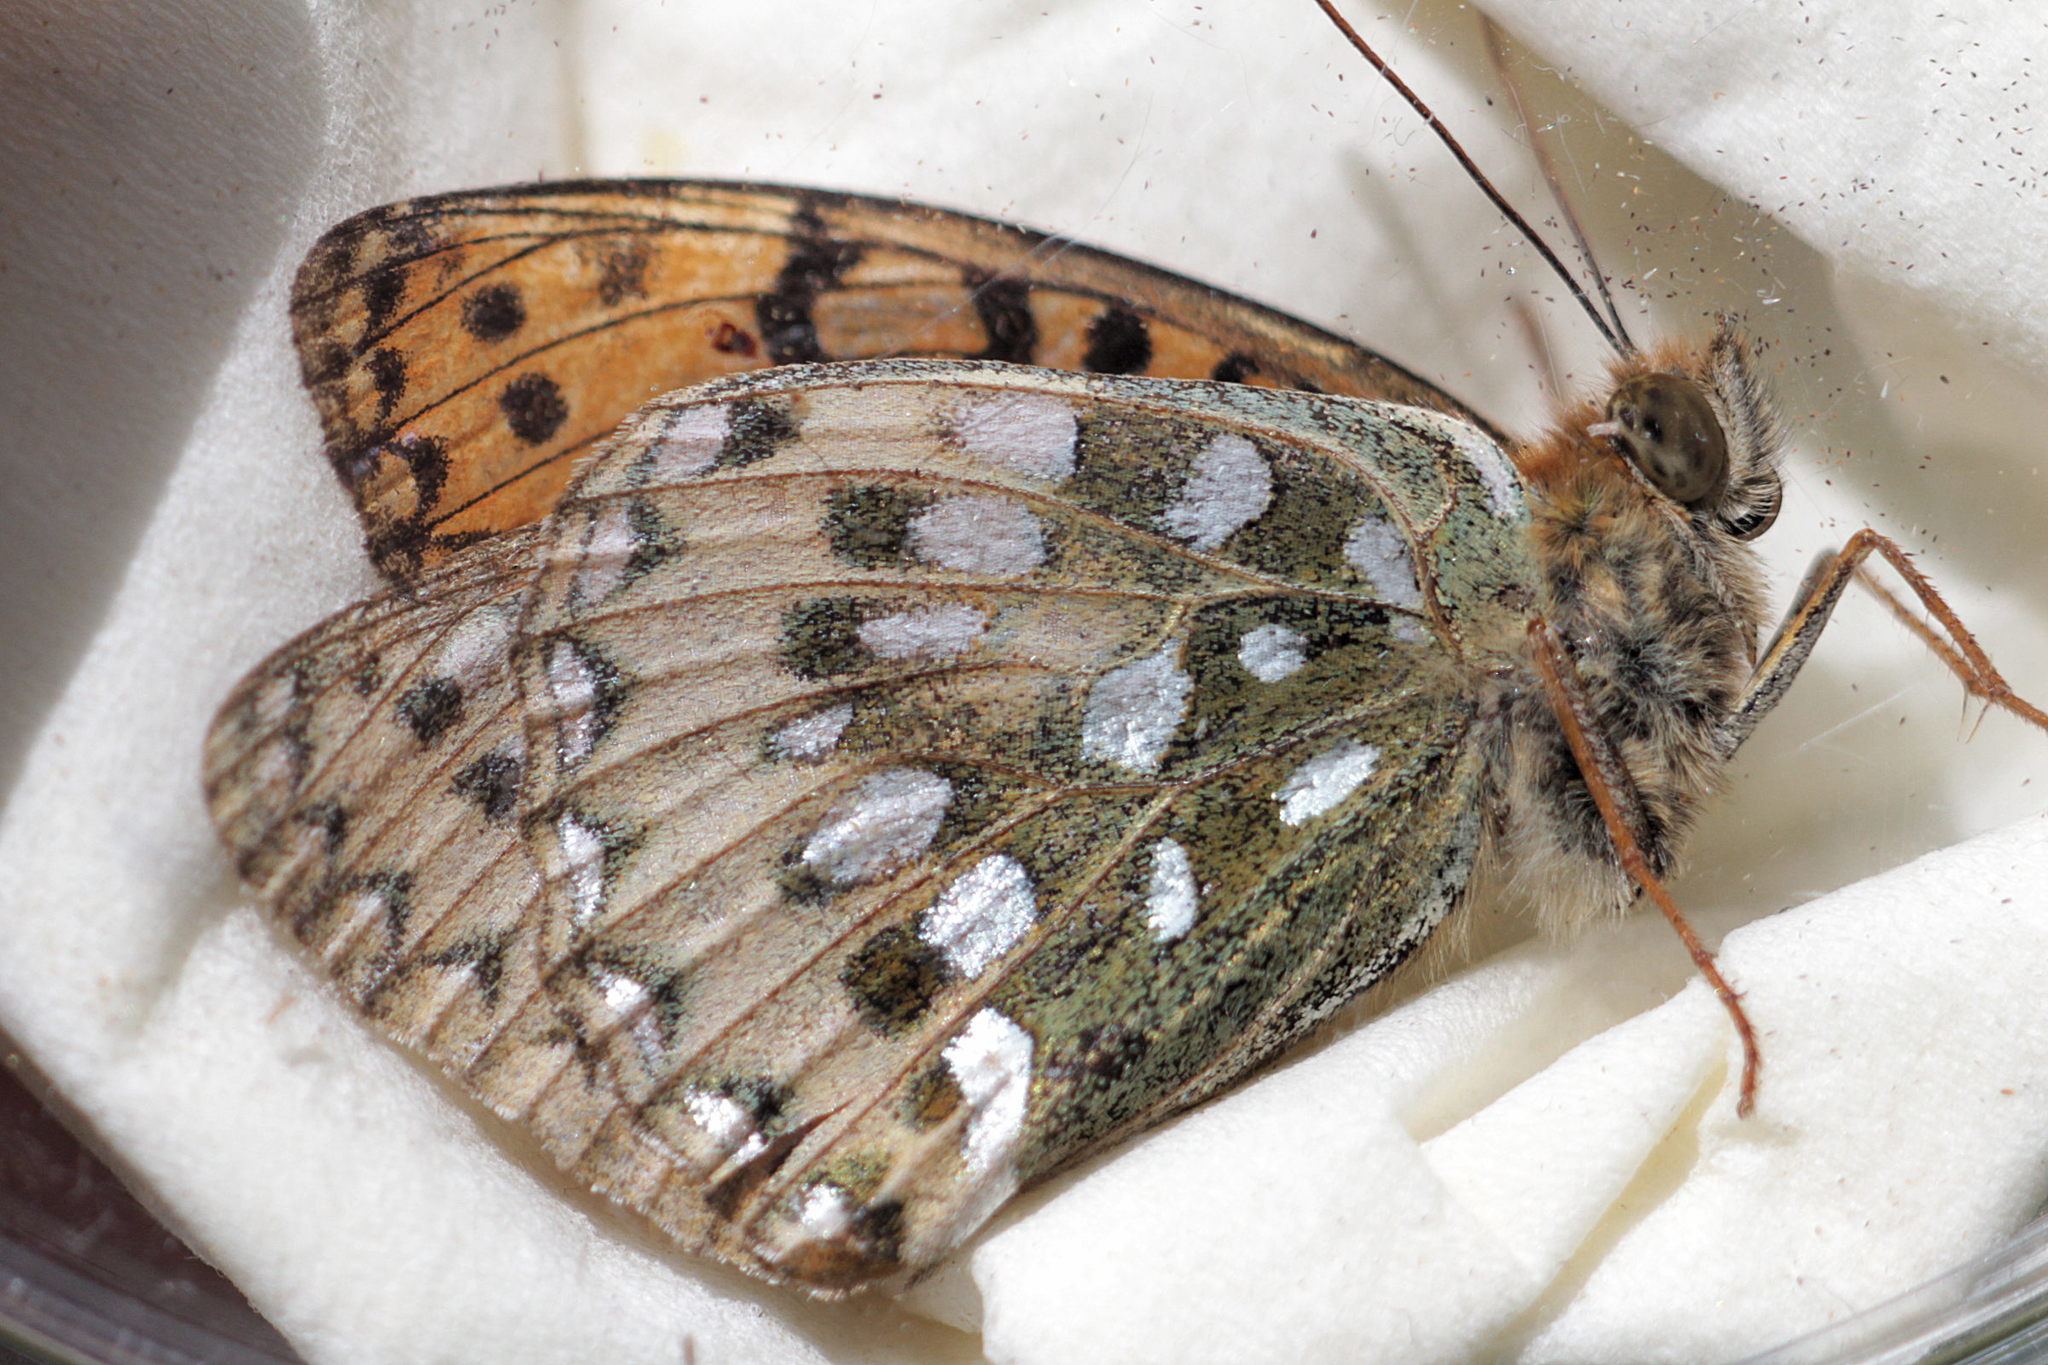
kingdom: Animalia
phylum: Arthropoda
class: Insecta
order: Lepidoptera
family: Nymphalidae
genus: Speyeria
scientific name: Speyeria aglaja
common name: Dark green fritillary
